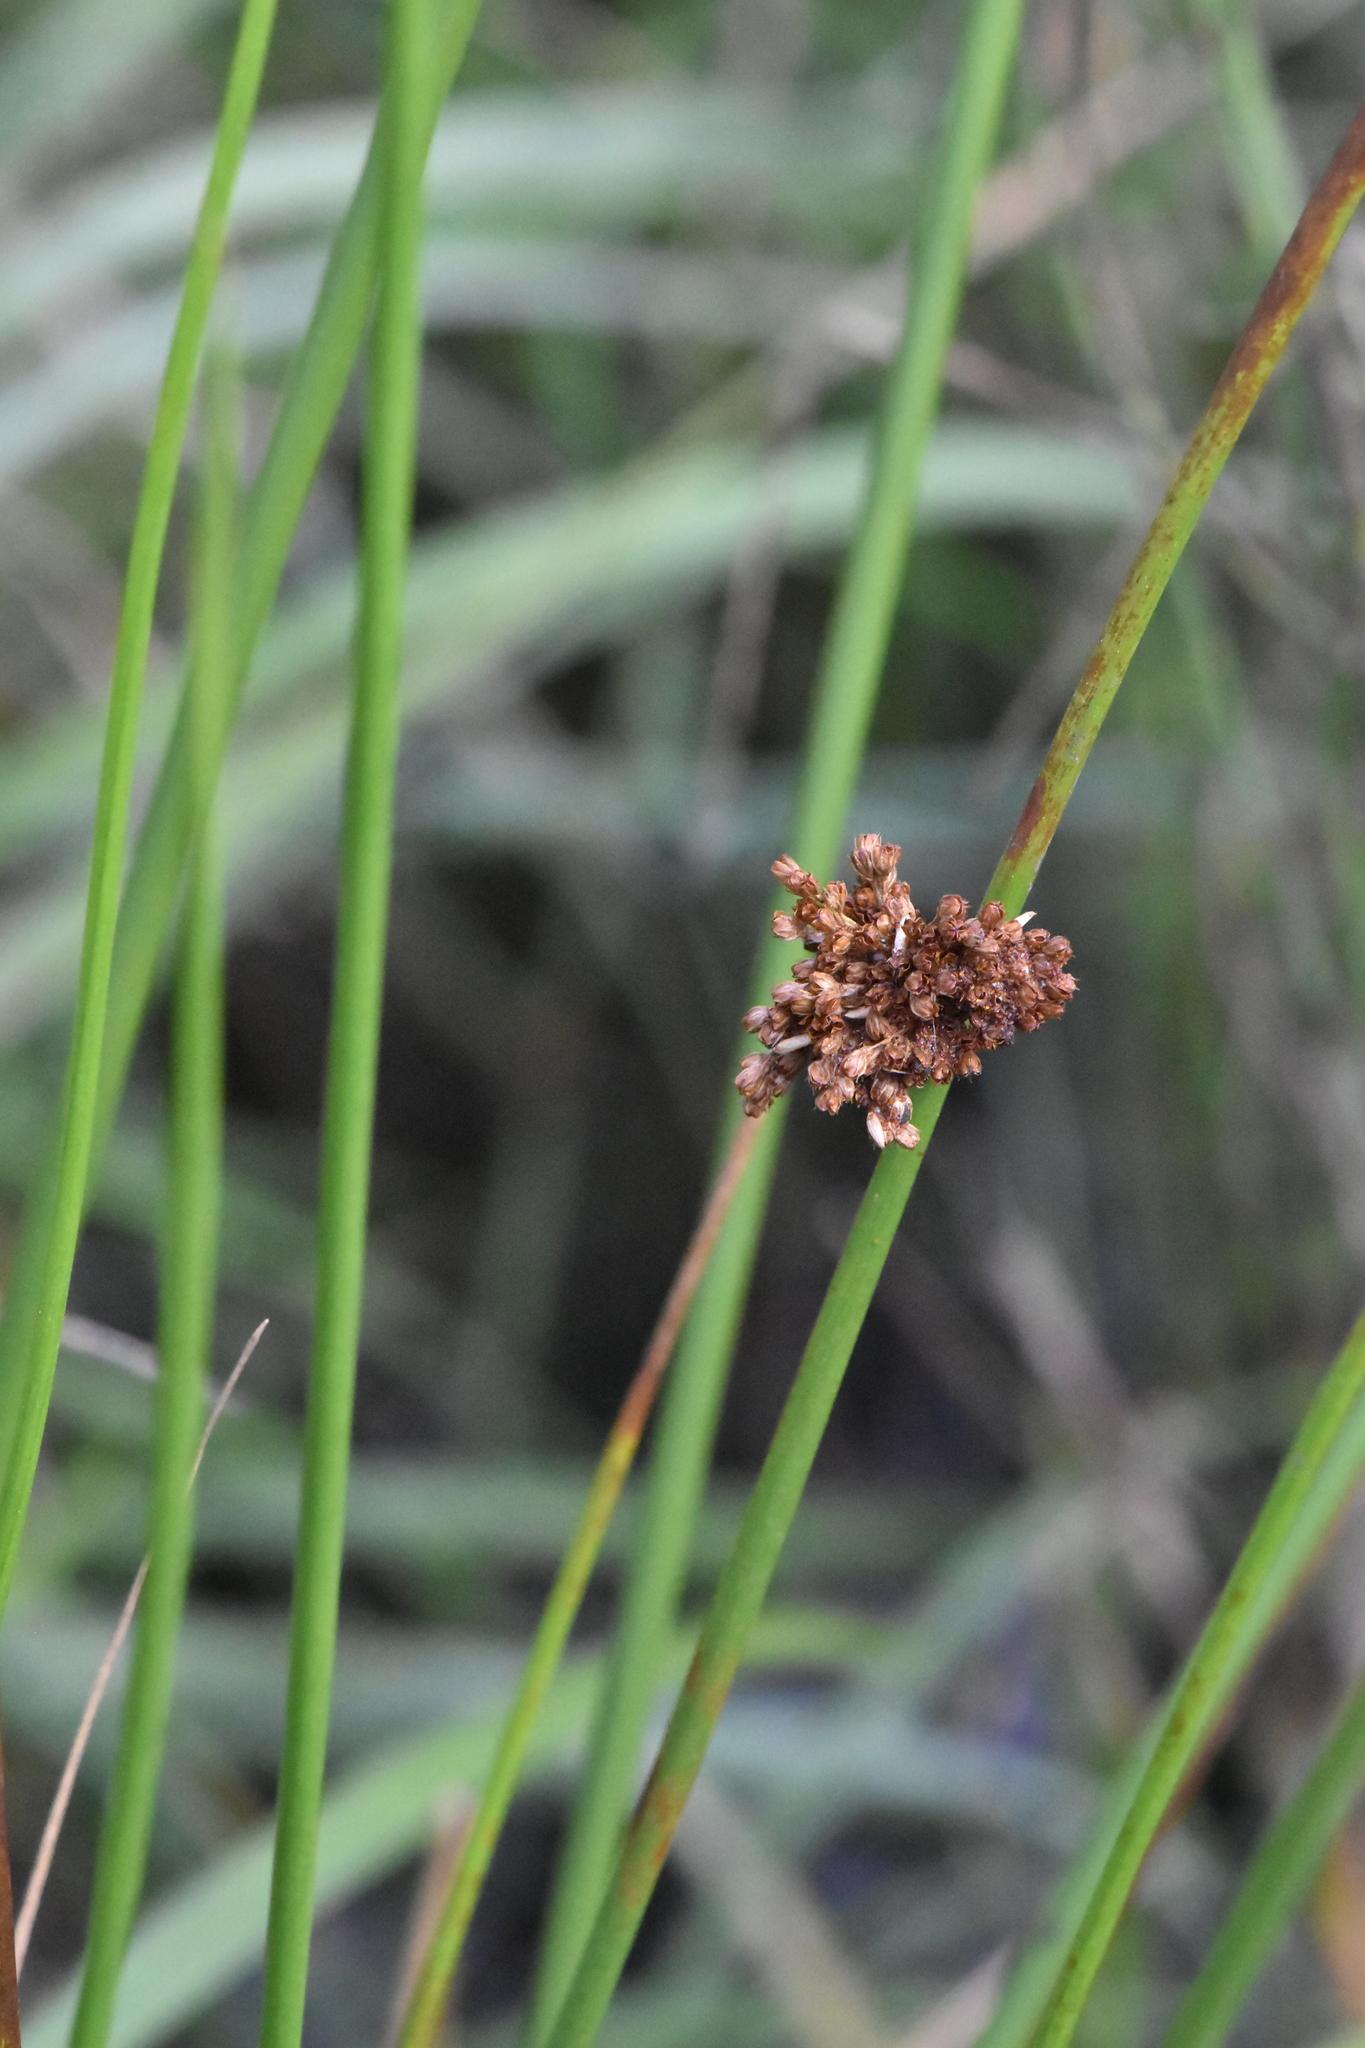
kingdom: Plantae
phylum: Tracheophyta
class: Liliopsida
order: Poales
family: Juncaceae
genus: Juncus
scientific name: Juncus effusus
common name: Soft rush
